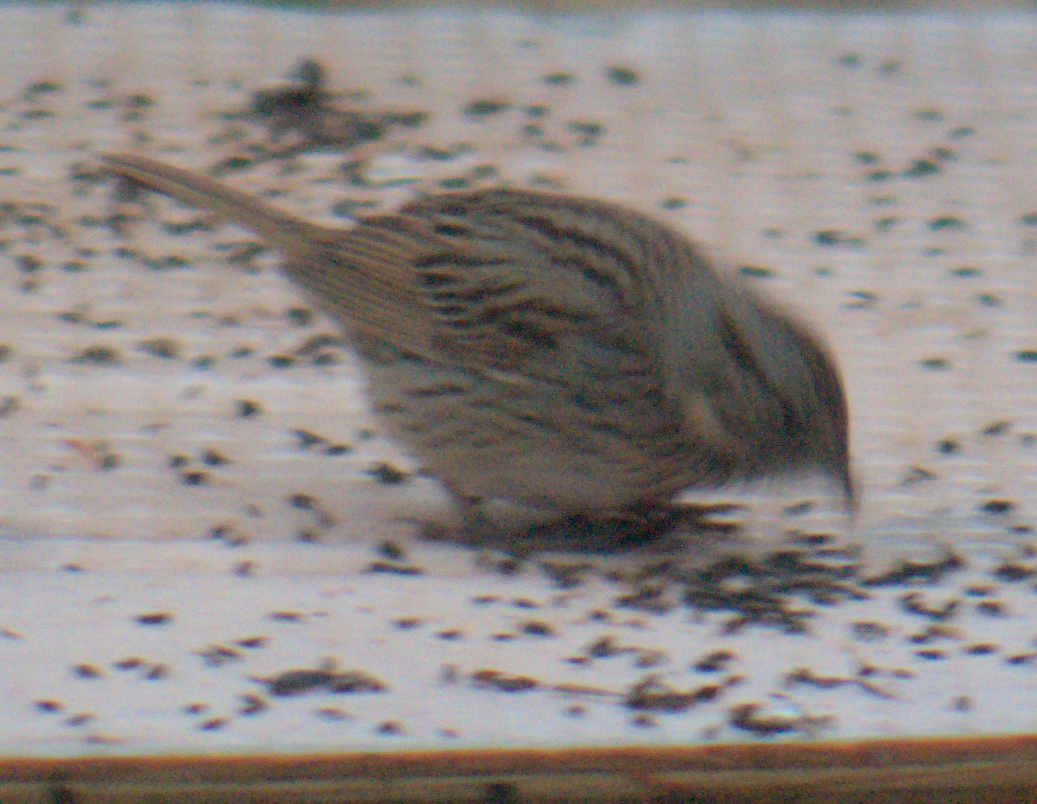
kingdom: Animalia
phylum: Chordata
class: Aves
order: Passeriformes
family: Passerellidae
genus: Melospiza
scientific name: Melospiza lincolnii
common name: Lincoln's sparrow
